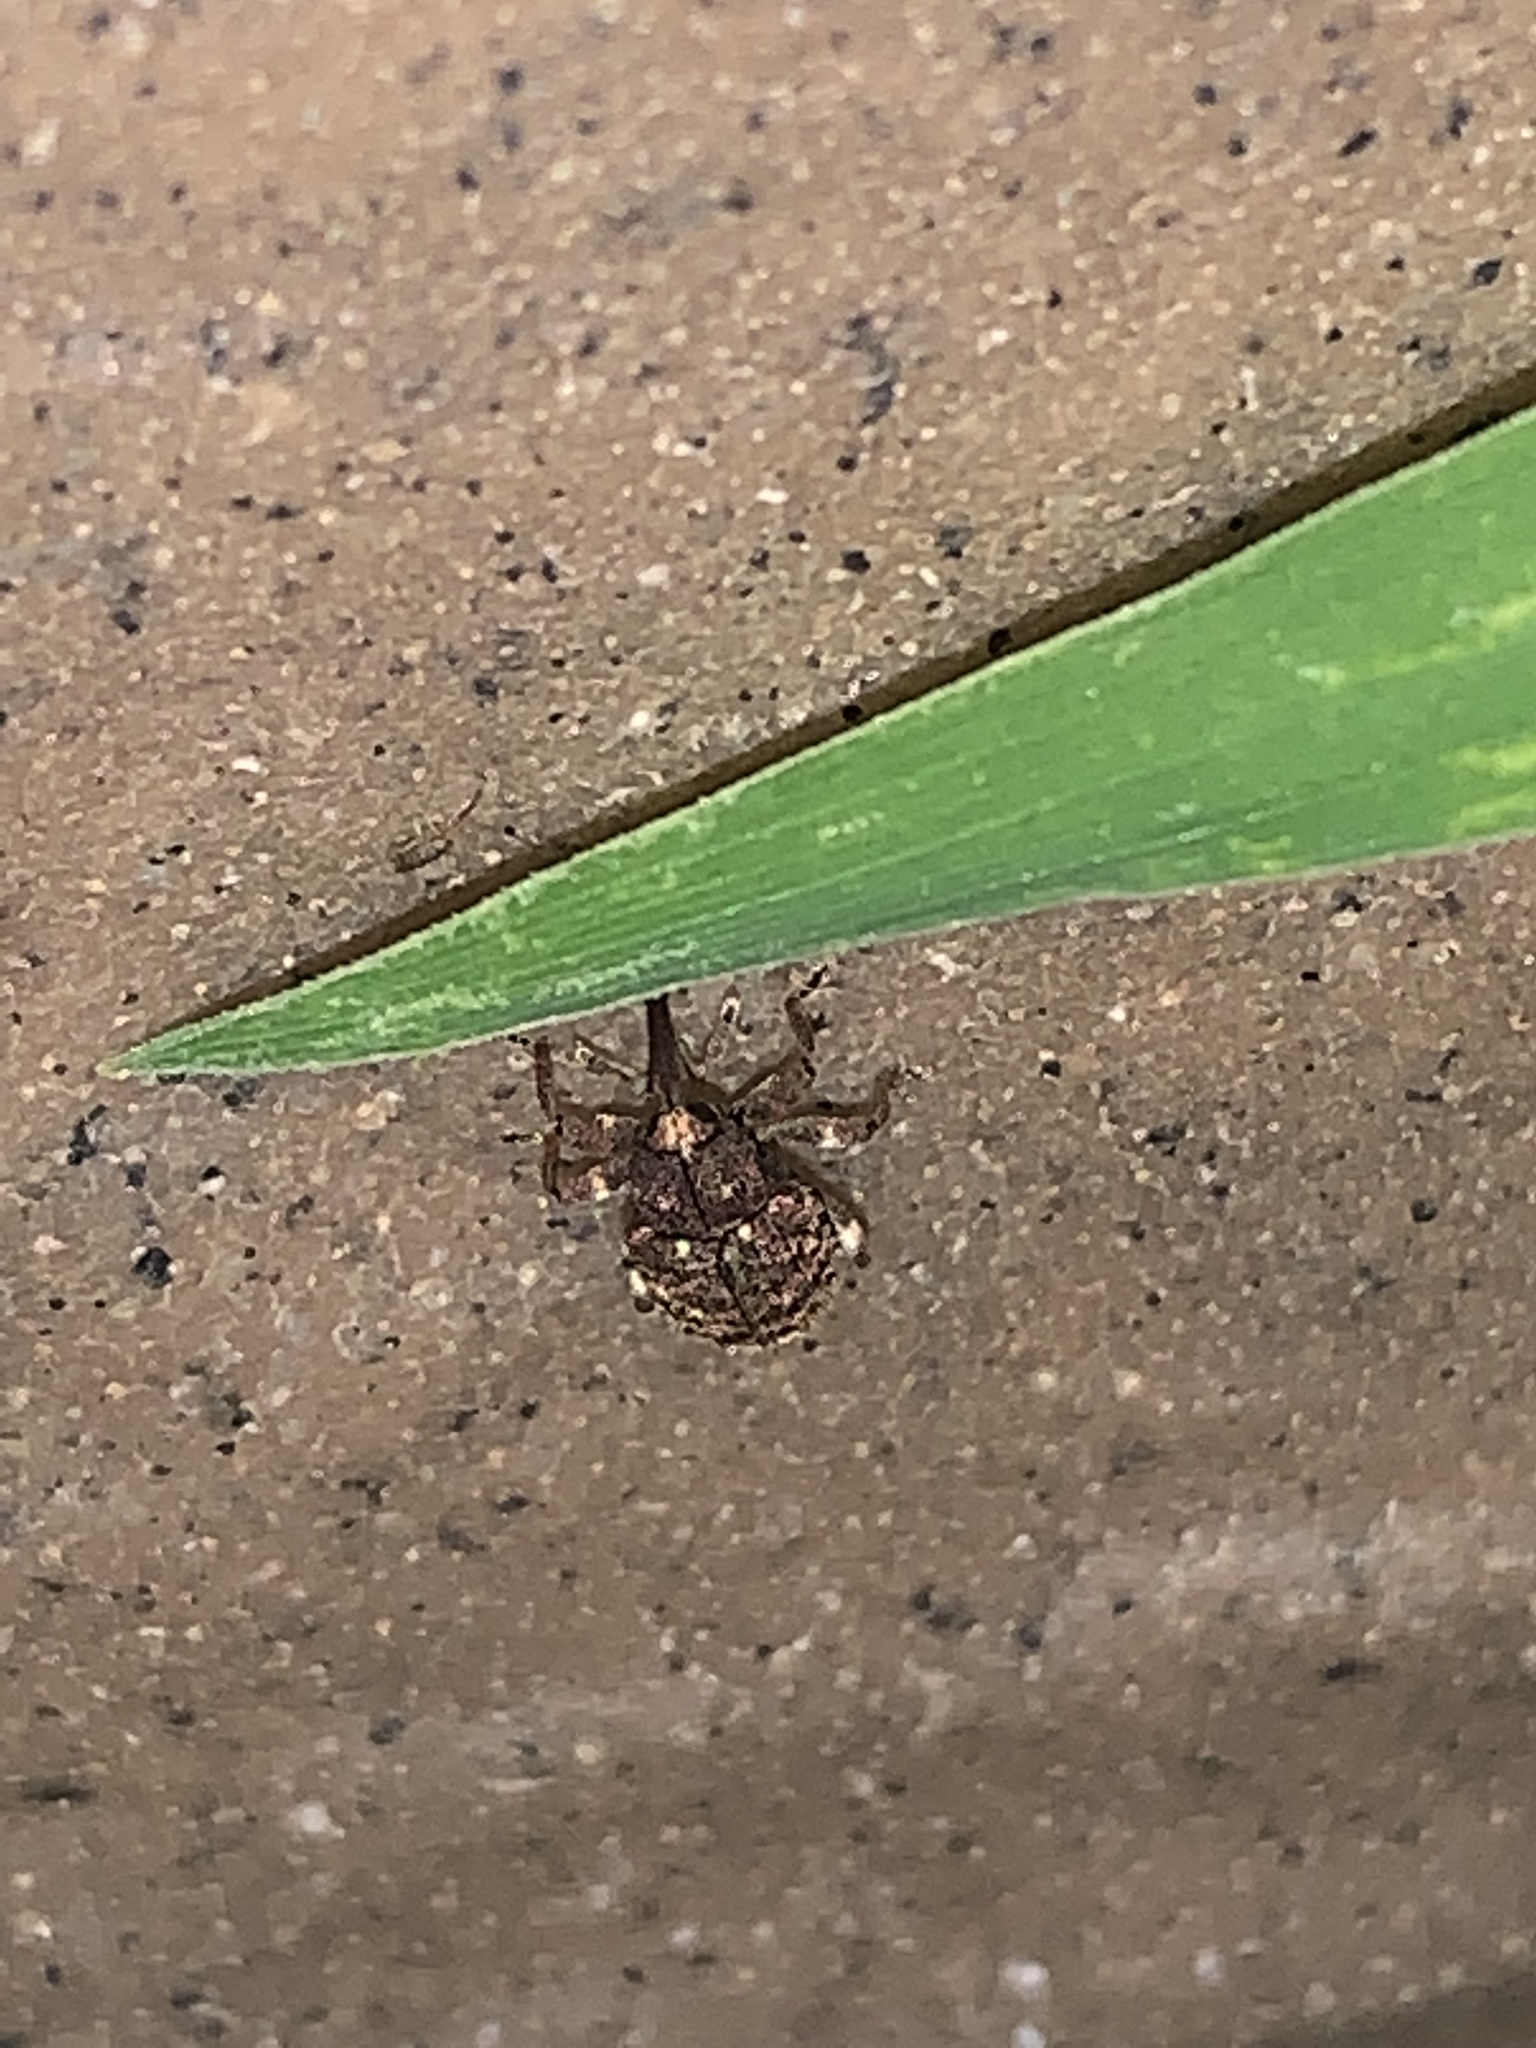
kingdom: Animalia
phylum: Arthropoda
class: Insecta
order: Coleoptera
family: Curculionidae
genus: Conotrachelus
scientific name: Conotrachelus posticatus
